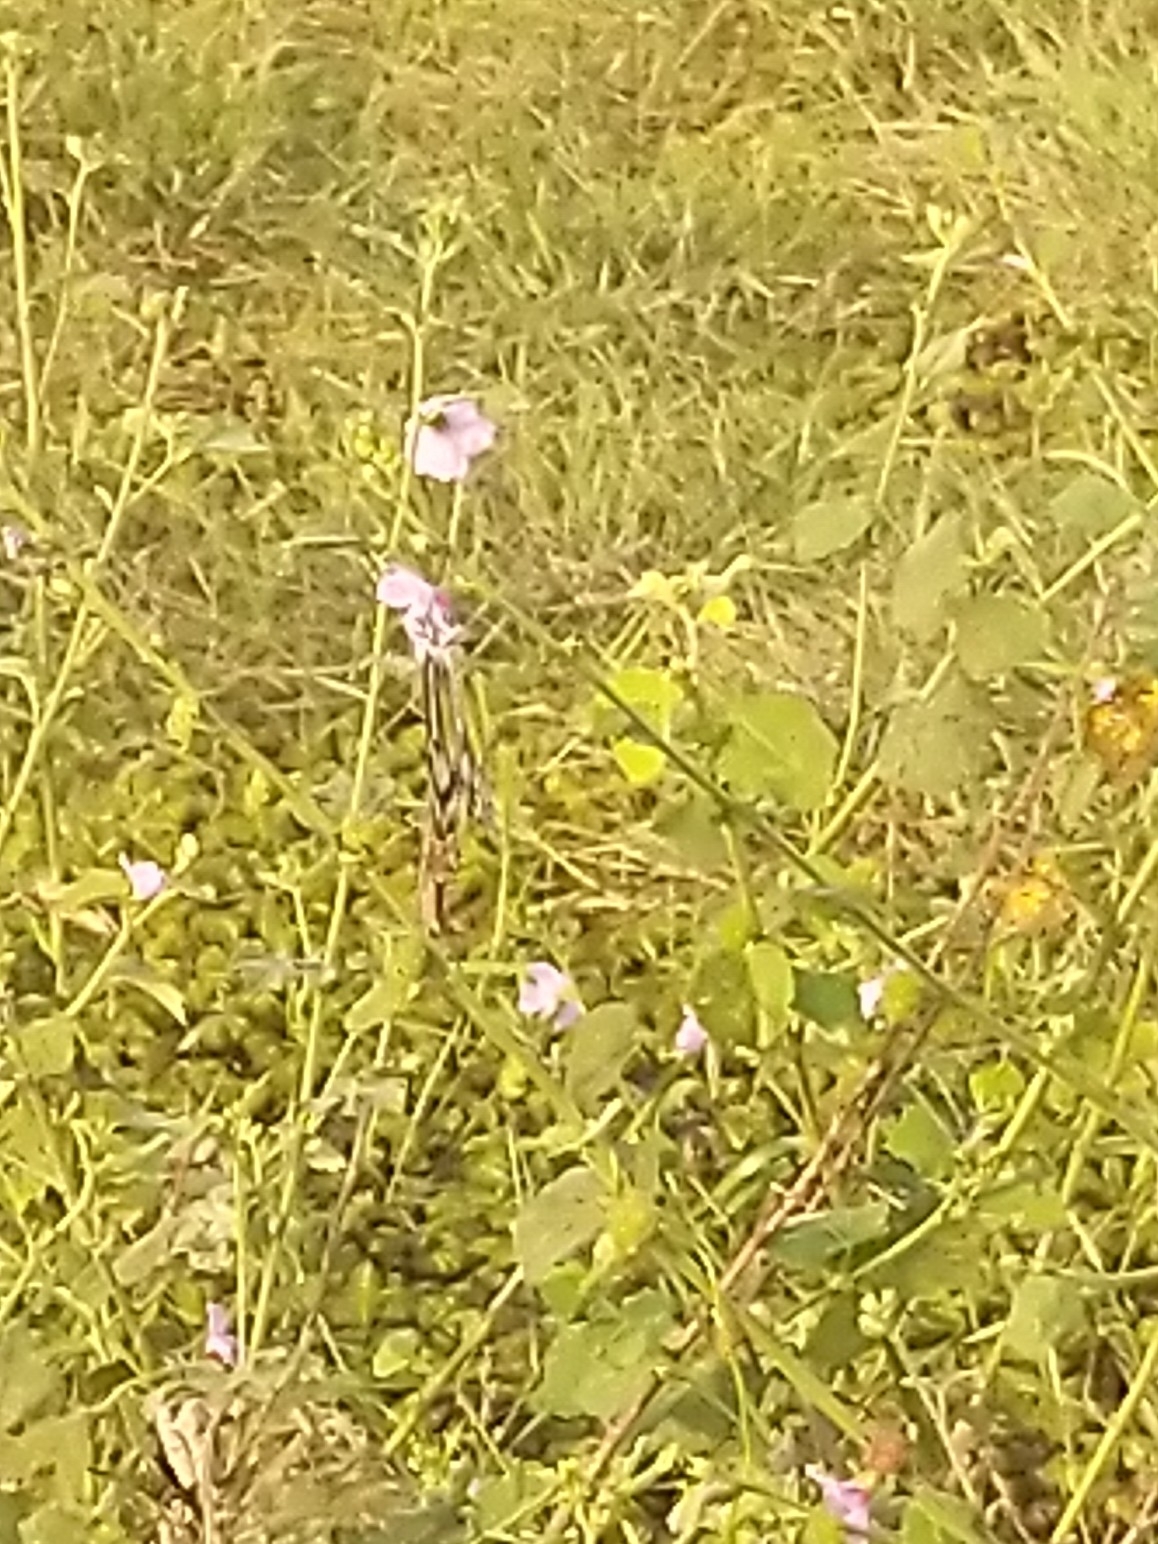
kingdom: Animalia
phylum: Arthropoda
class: Insecta
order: Lepidoptera
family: Pieridae
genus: Delias
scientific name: Delias eucharis
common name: Common jezebel
